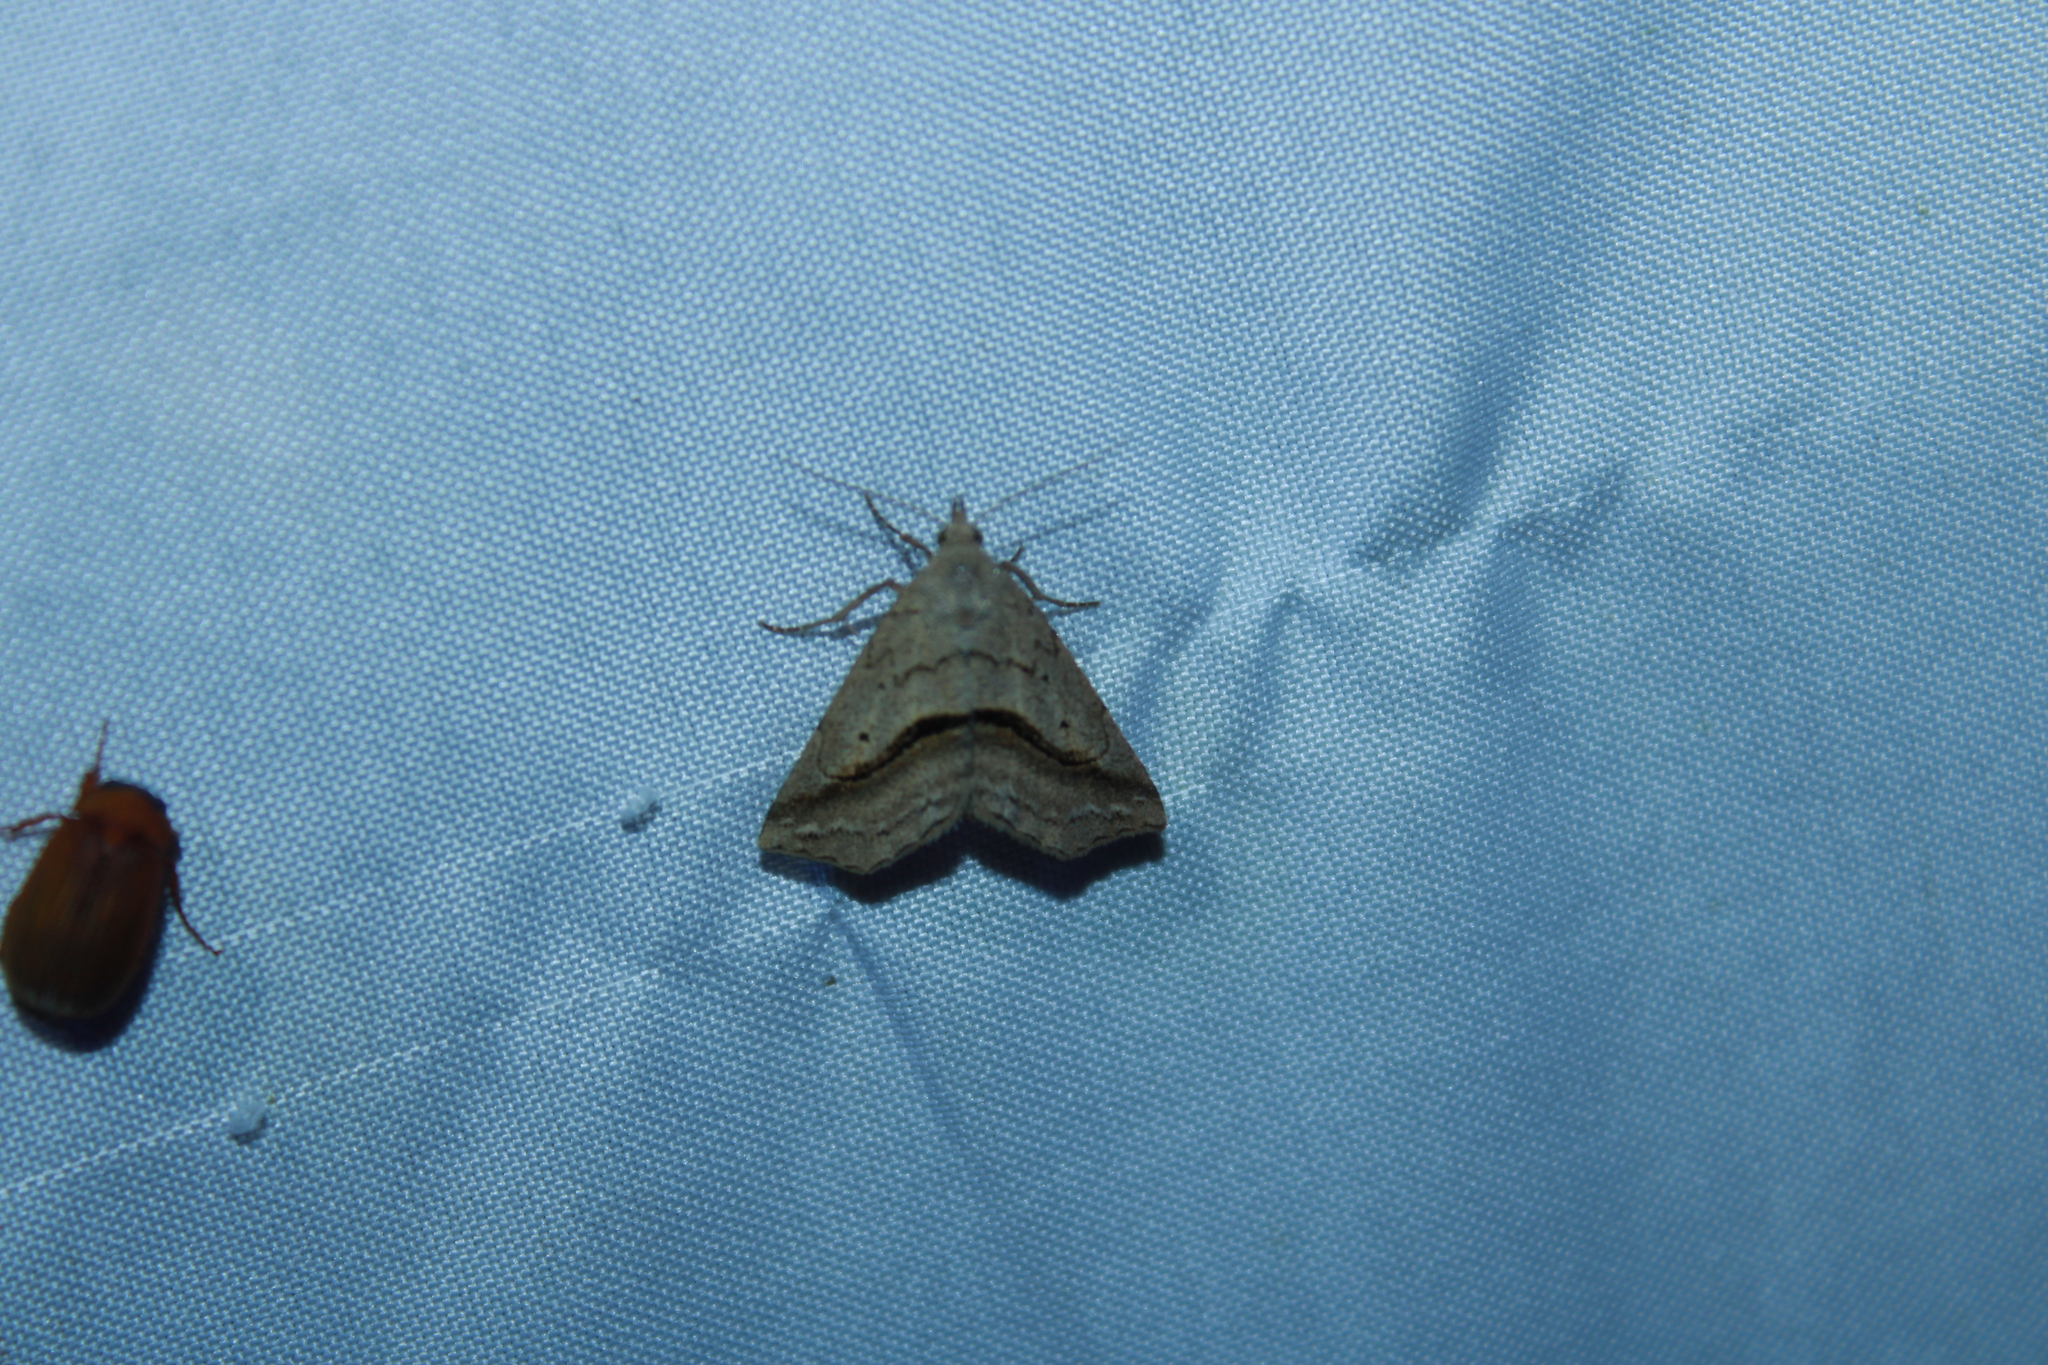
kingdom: Animalia
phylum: Arthropoda
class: Insecta
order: Lepidoptera
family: Erebidae
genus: Spargaloma
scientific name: Spargaloma perditalis
